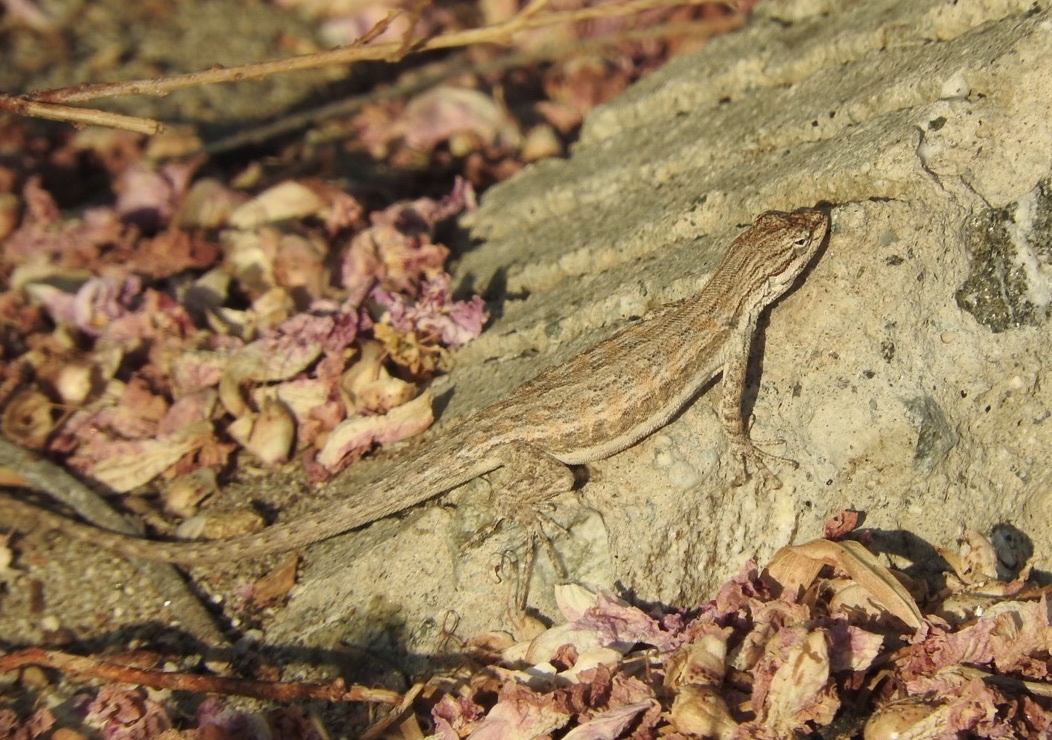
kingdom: Animalia
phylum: Chordata
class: Squamata
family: Phrynosomatidae
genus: Urosaurus
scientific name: Urosaurus graciosus
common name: Long-tailed brush lizard
